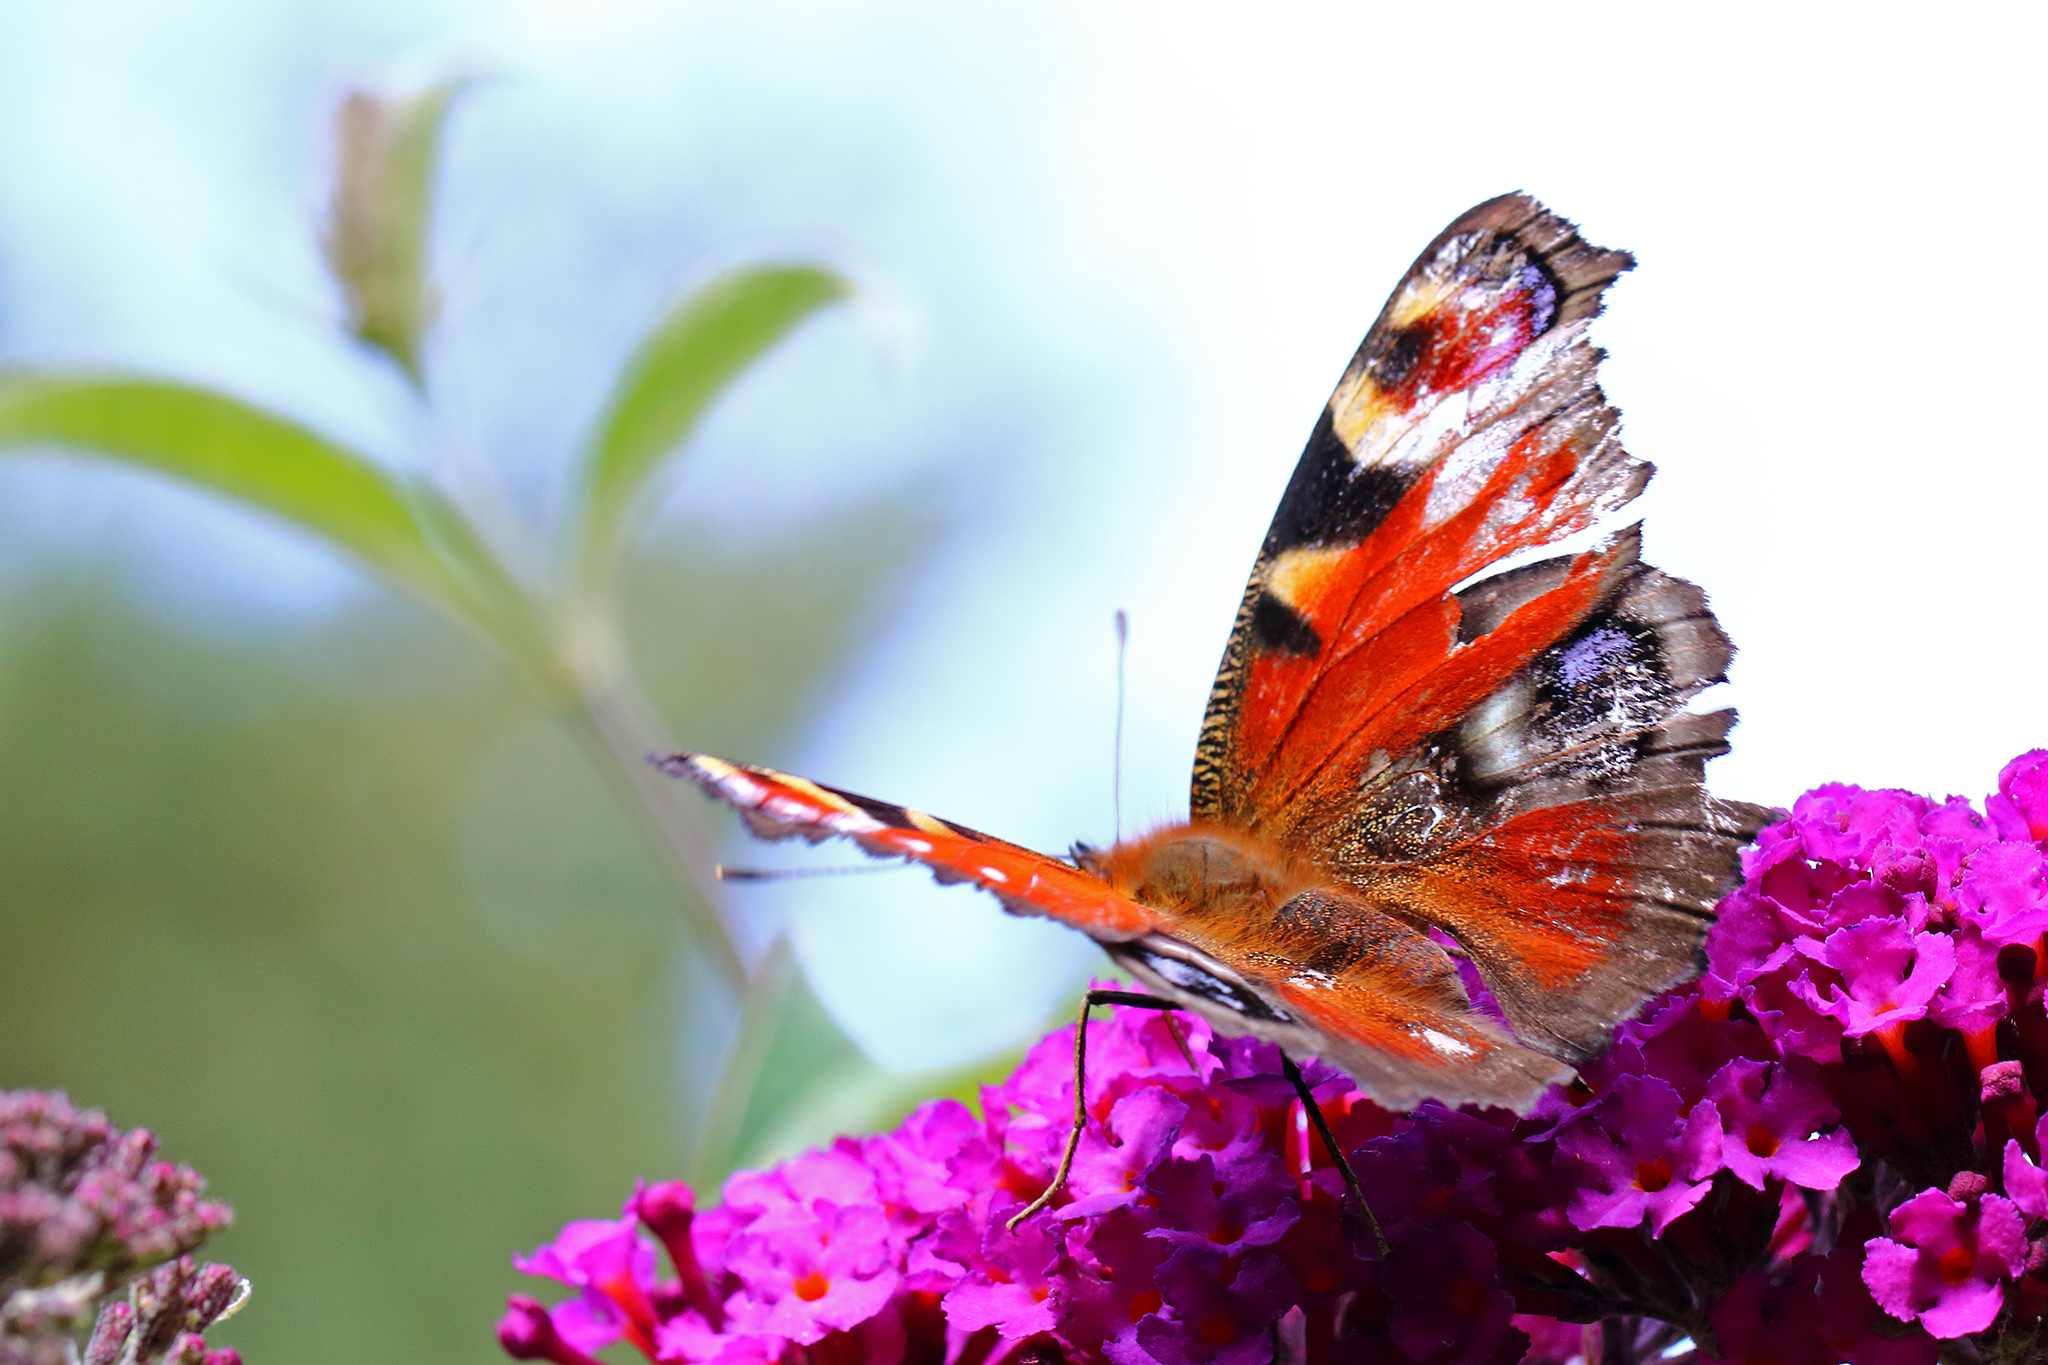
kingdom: Animalia
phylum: Arthropoda
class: Insecta
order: Lepidoptera
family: Nymphalidae
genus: Aglais
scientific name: Aglais io
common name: Peacock
